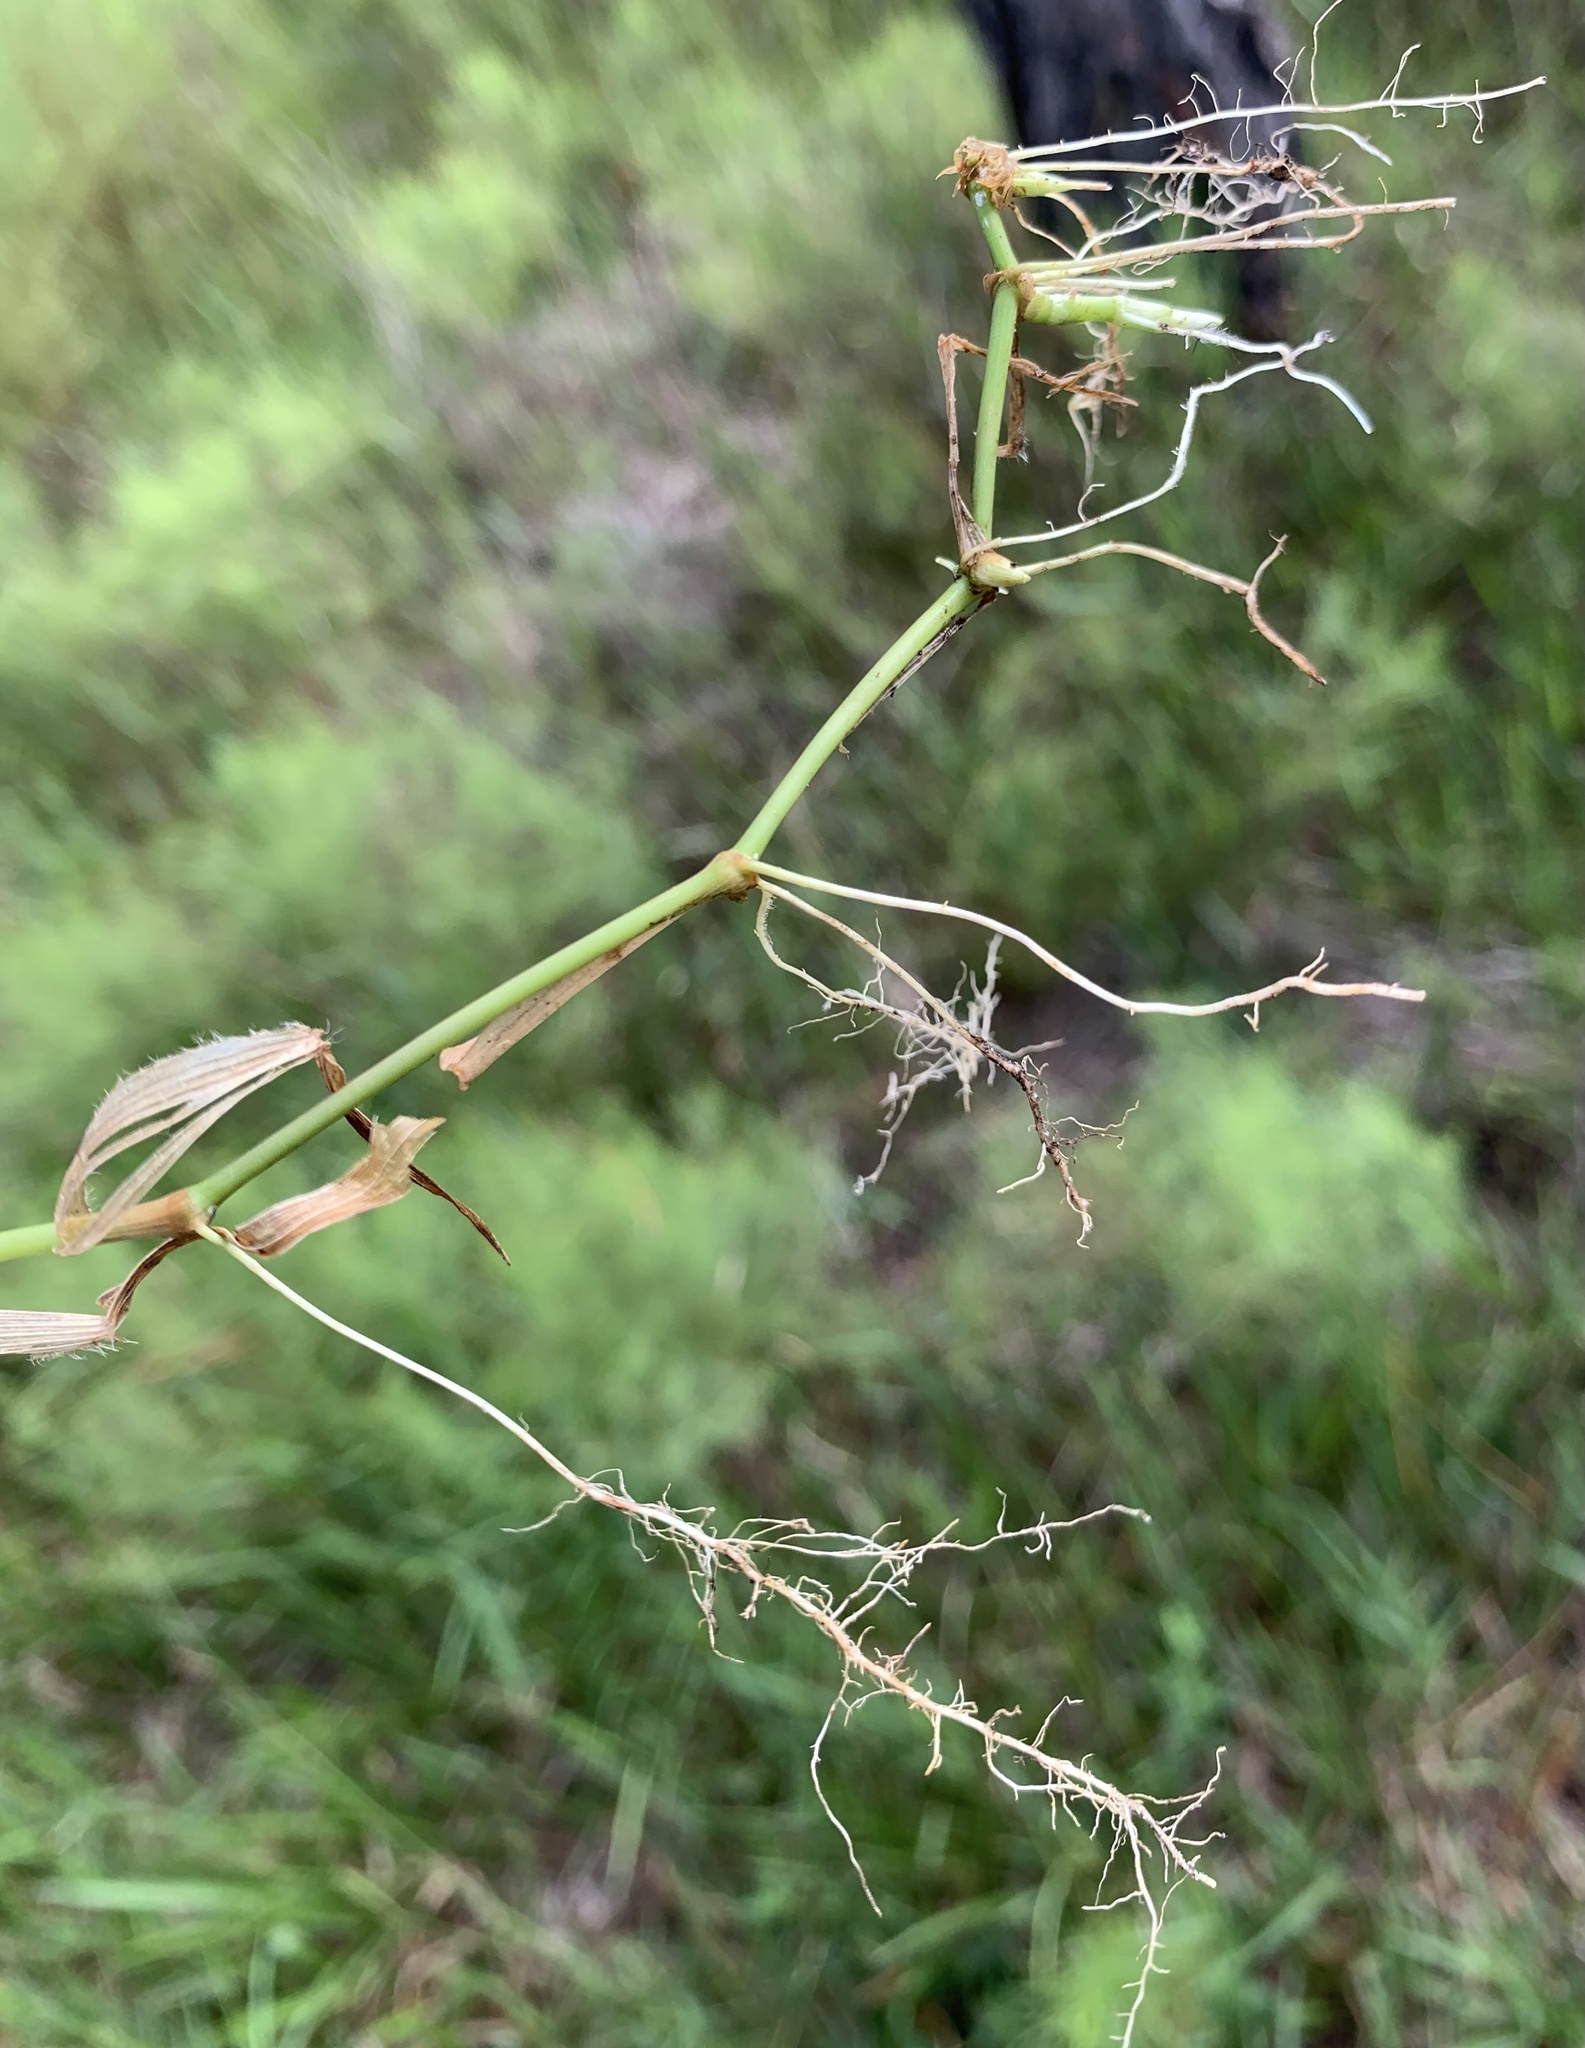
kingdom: Plantae
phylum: Tracheophyta
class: Liliopsida
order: Poales
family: Poaceae
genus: Sacciolepis
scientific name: Sacciolepis striata
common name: American cupscale
